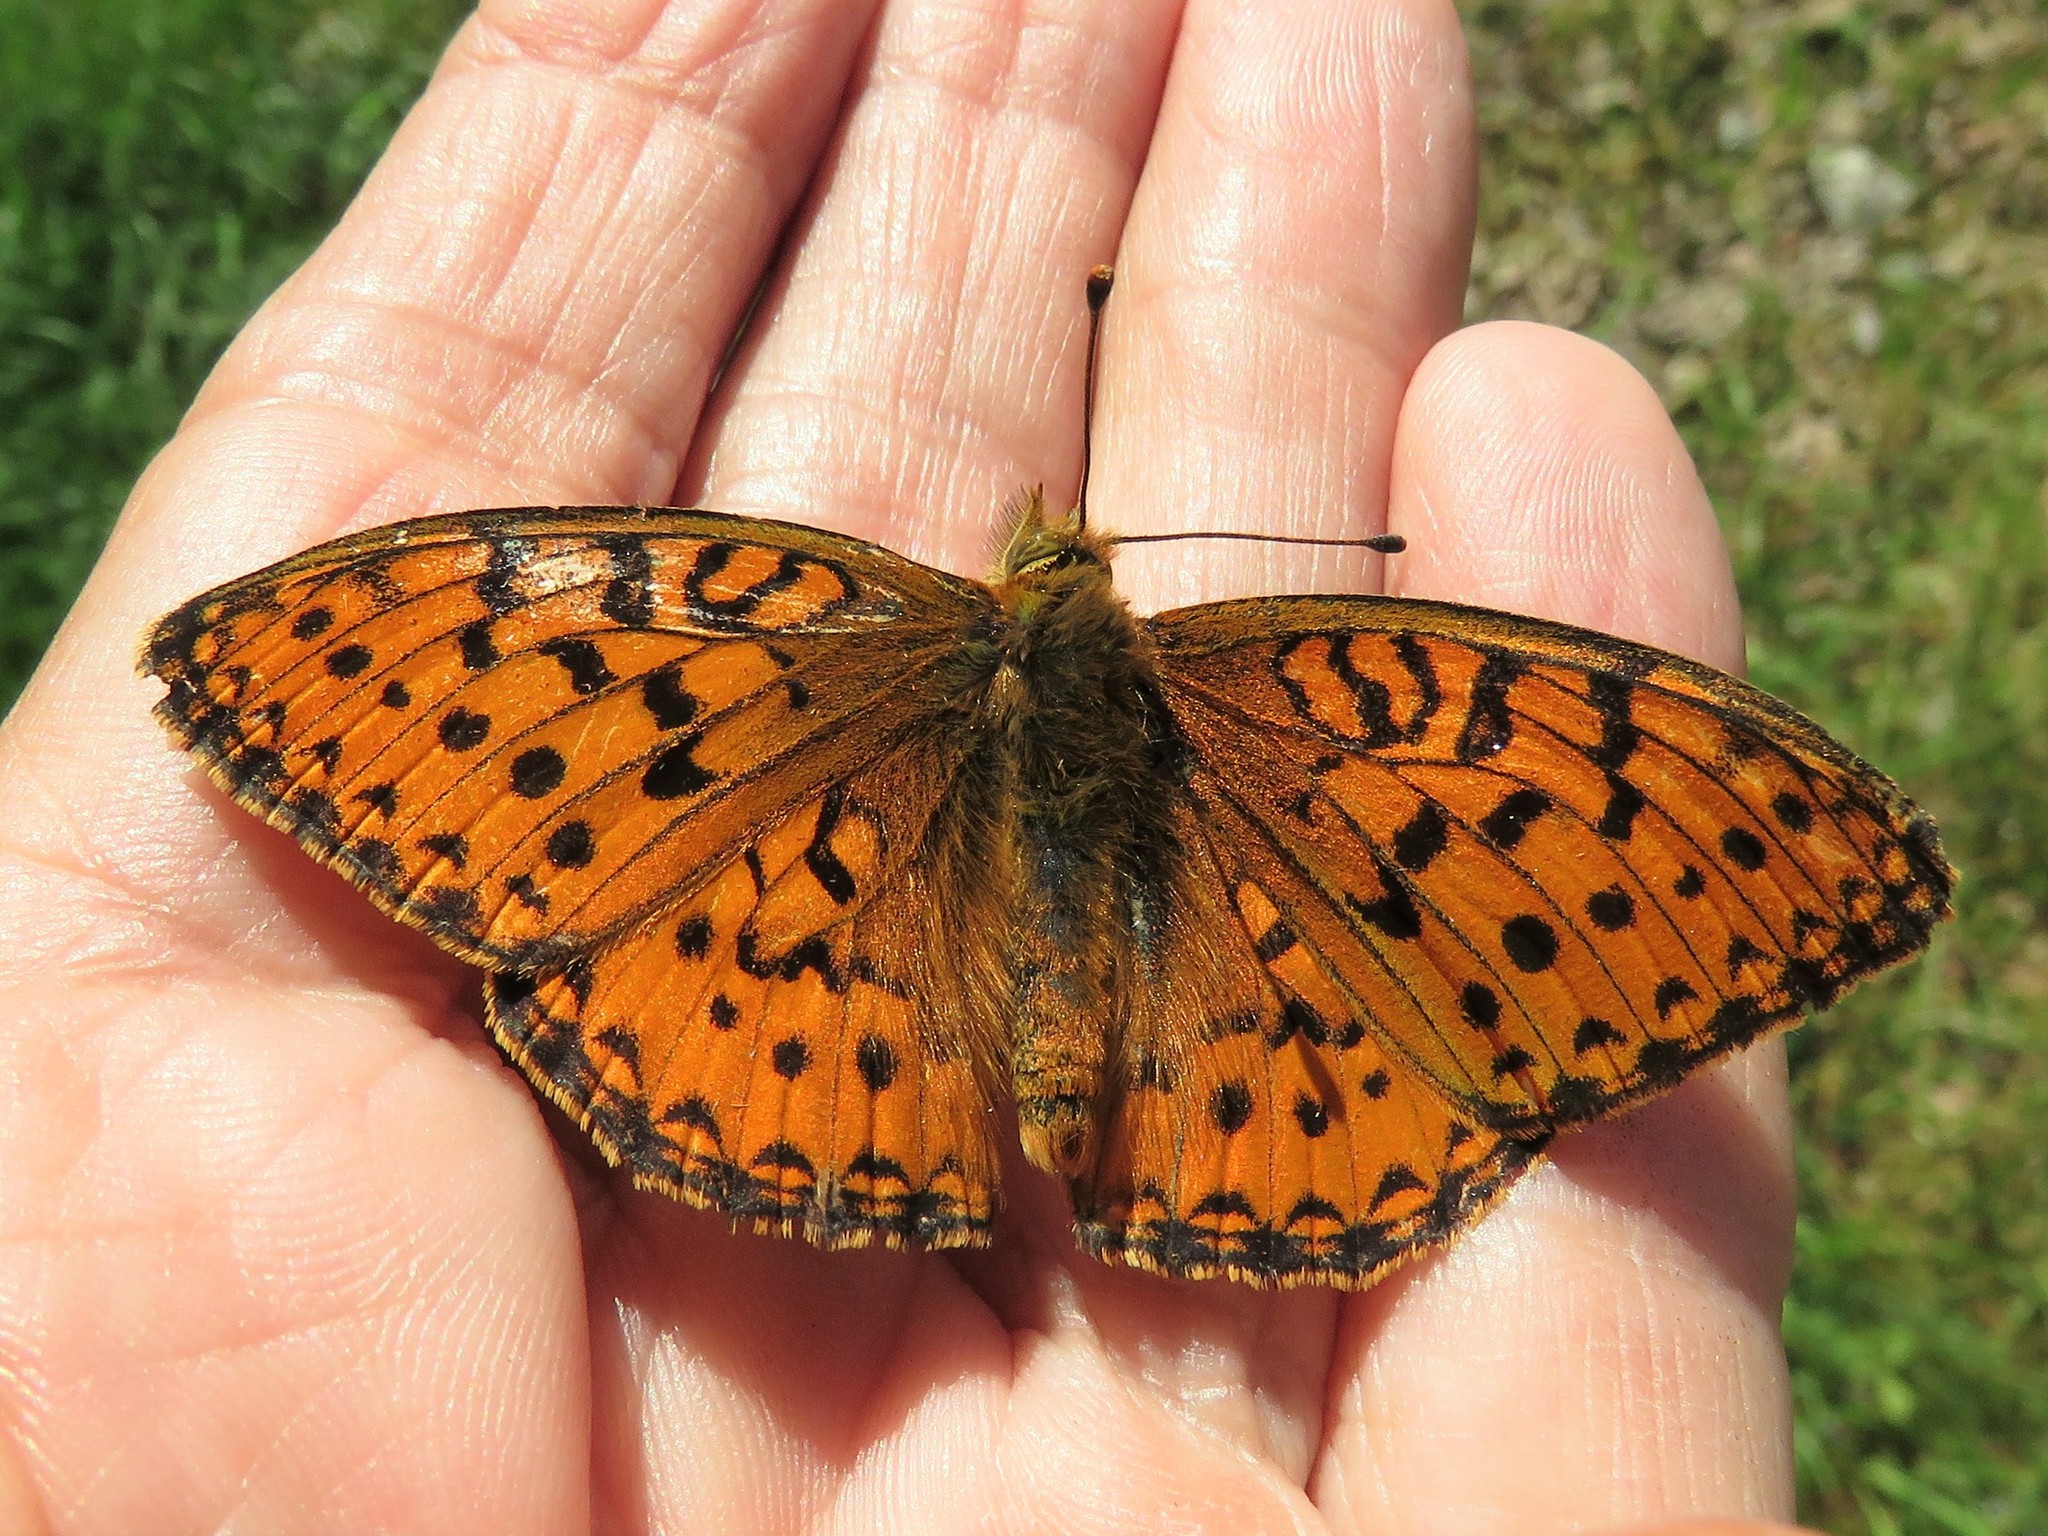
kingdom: Animalia
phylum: Arthropoda
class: Insecta
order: Lepidoptera
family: Nymphalidae
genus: Speyeria
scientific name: Speyeria aglaja
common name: Dark green fritillary
